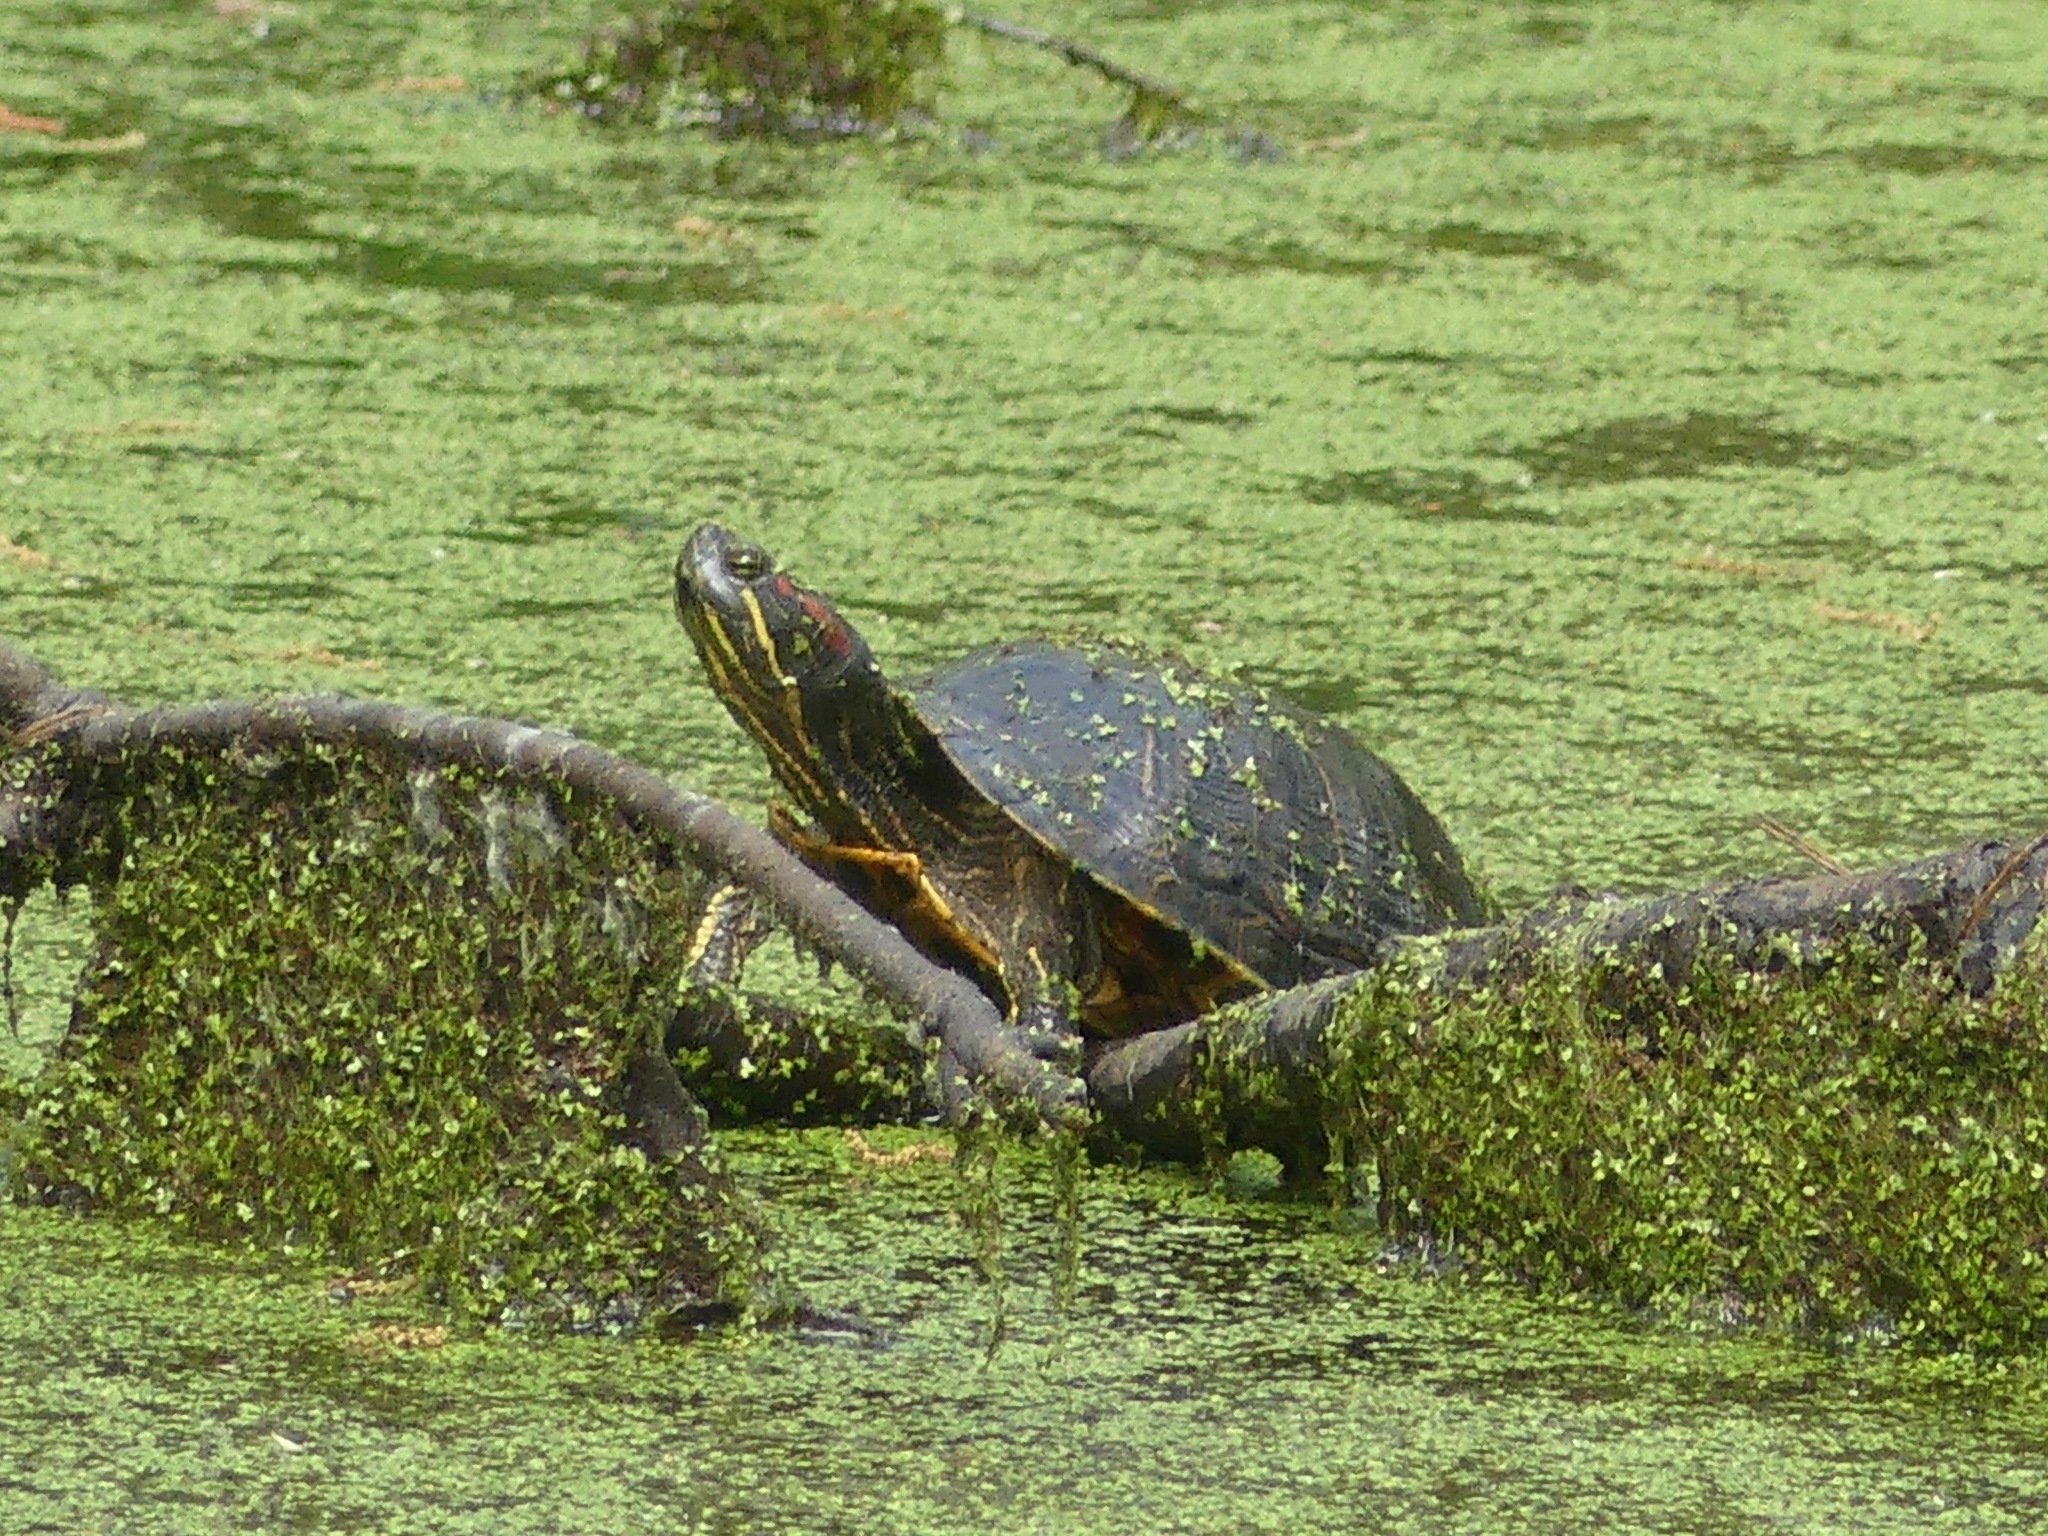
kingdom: Animalia
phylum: Chordata
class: Testudines
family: Emydidae
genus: Trachemys
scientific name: Trachemys scripta
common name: Slider
